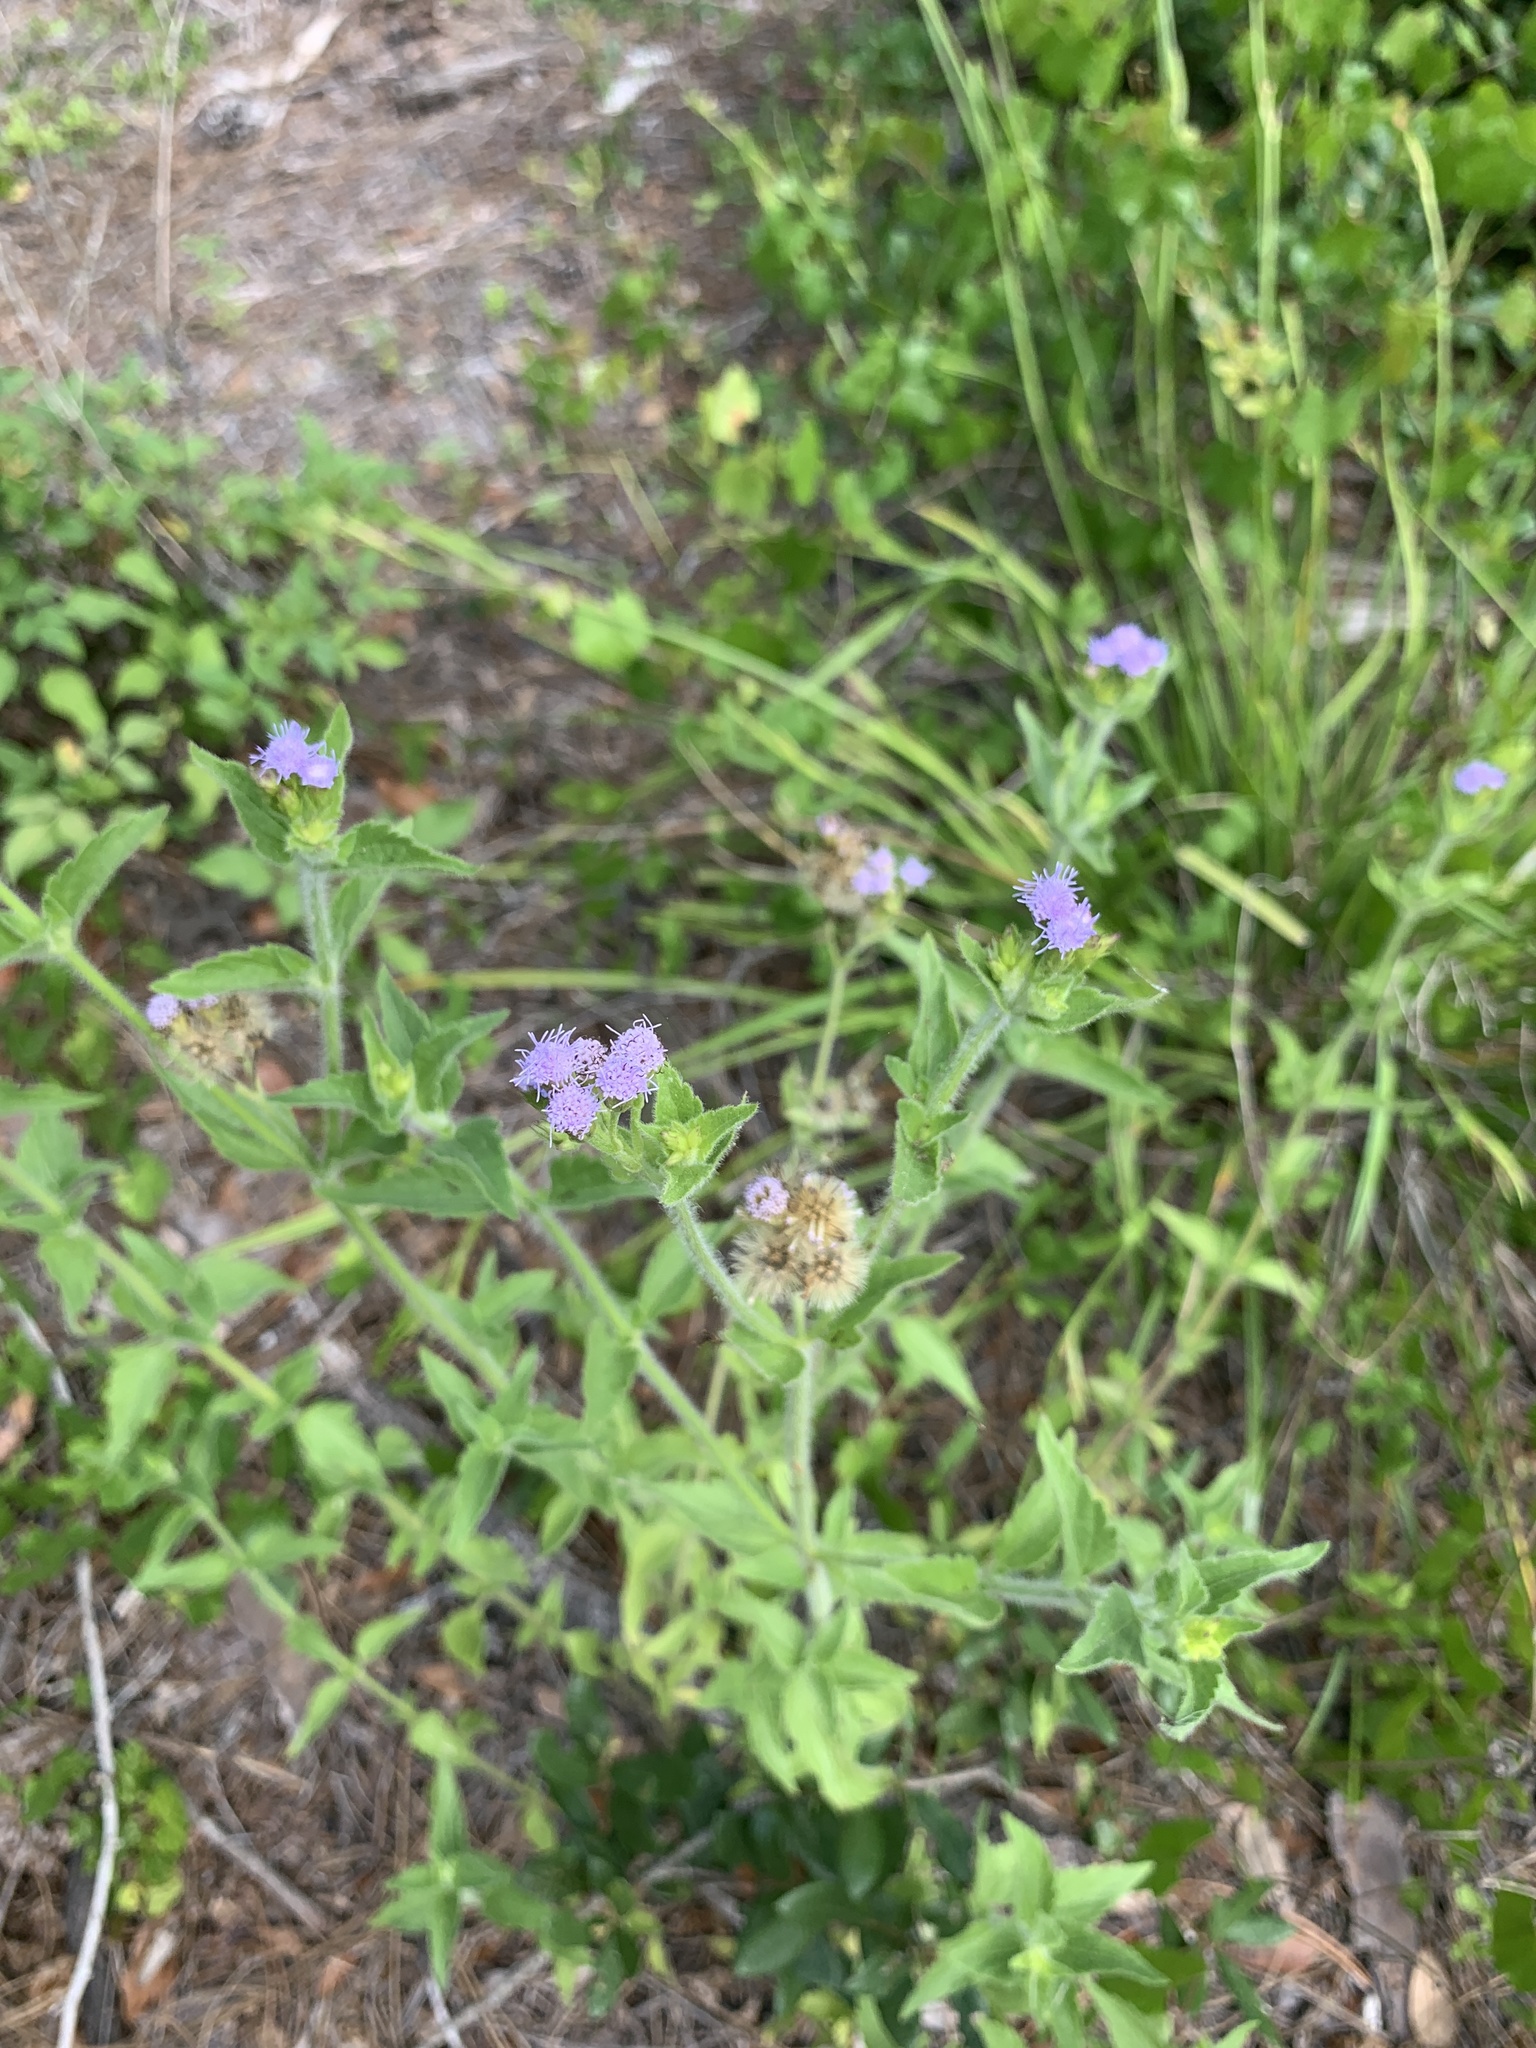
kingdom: Plantae
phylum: Tracheophyta
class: Magnoliopsida
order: Asterales
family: Asteraceae
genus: Praxelis
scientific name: Praxelis clematidea
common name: Praxelis
